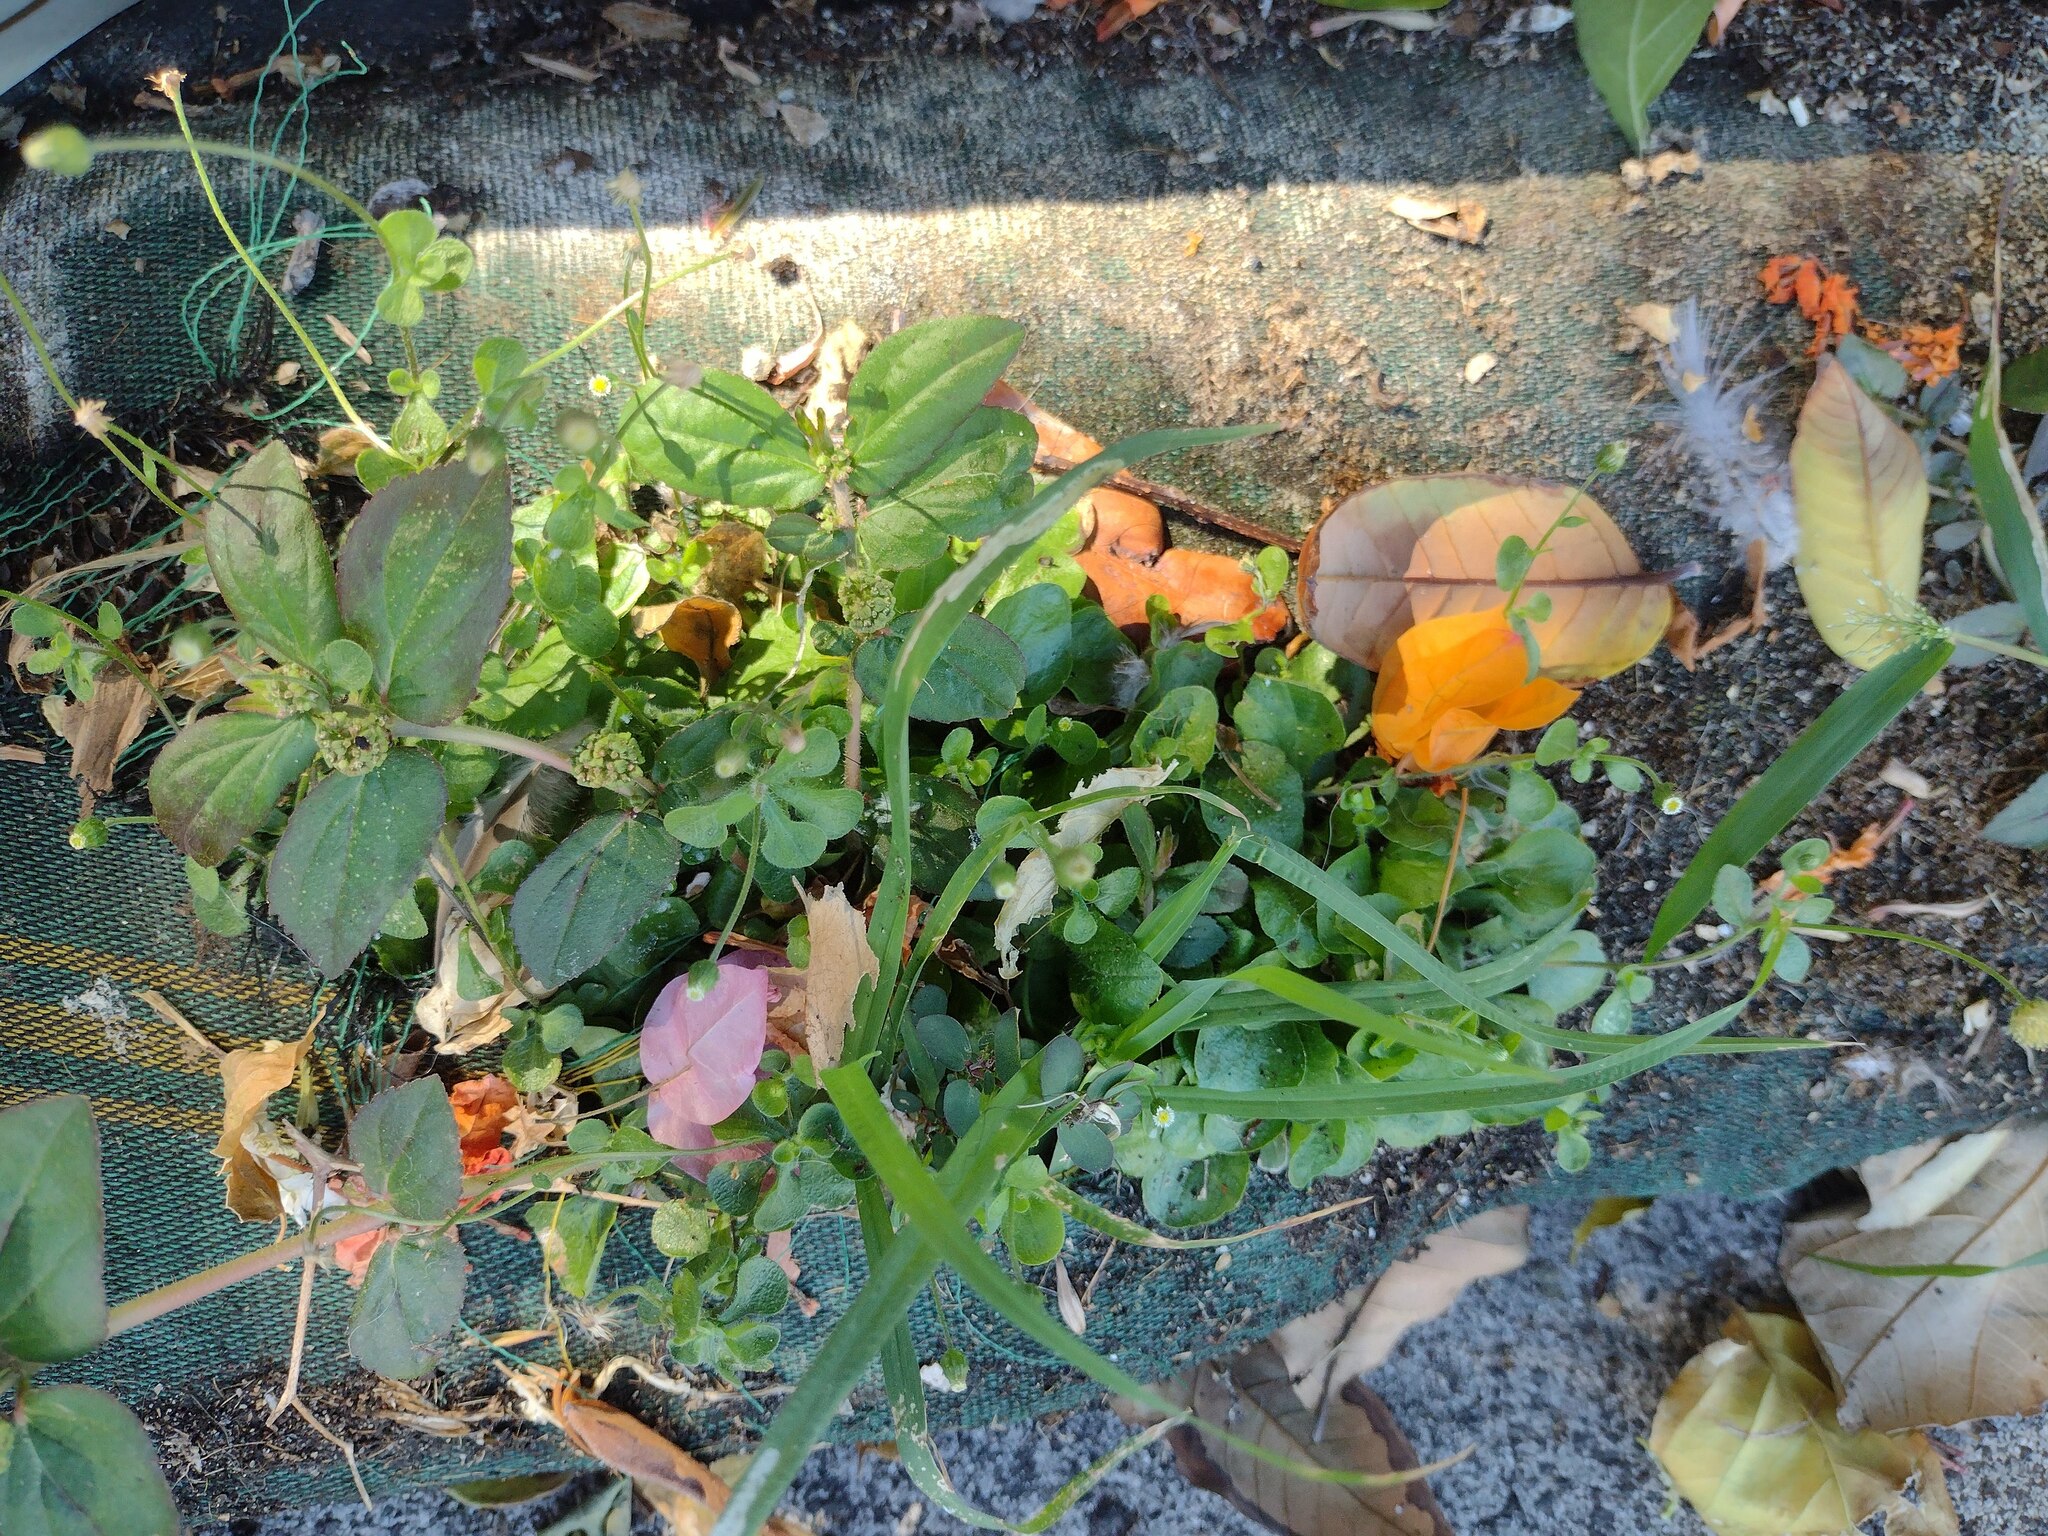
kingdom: Plantae
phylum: Tracheophyta
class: Magnoliopsida
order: Malpighiales
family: Euphorbiaceae
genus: Euphorbia
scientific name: Euphorbia hirta
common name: Pillpod sandmat
